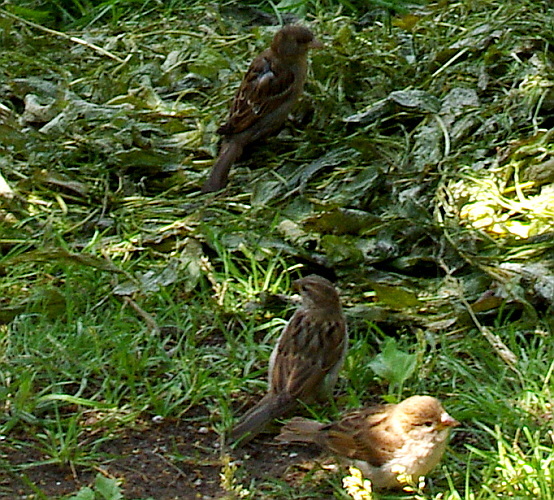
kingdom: Animalia
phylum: Chordata
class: Aves
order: Passeriformes
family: Passeridae
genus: Passer
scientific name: Passer domesticus
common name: House sparrow
